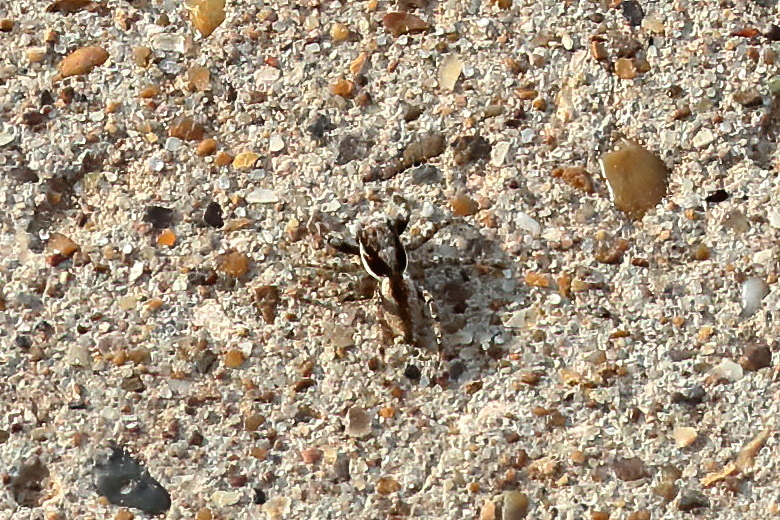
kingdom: Animalia
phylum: Arthropoda
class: Arachnida
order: Araneae
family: Salticidae
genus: Menemerus
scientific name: Menemerus bivittatus
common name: Gray wall jumper
